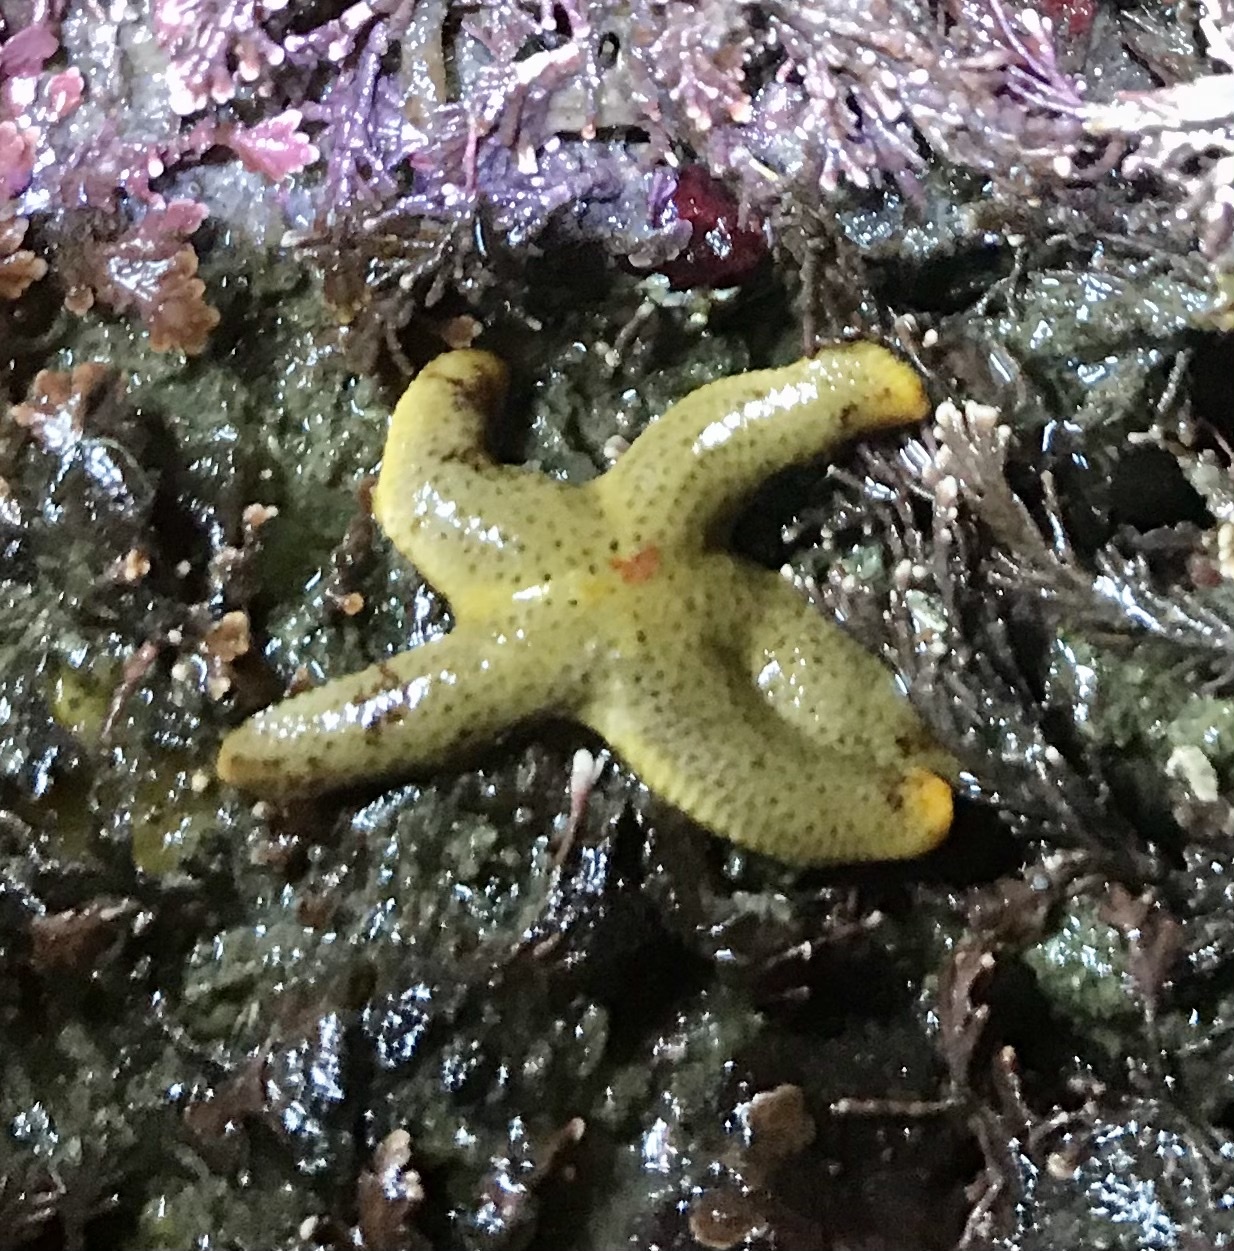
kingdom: Animalia
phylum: Echinodermata
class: Asteroidea
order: Spinulosida
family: Echinasteridae
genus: Henricia
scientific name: Henricia pumila
